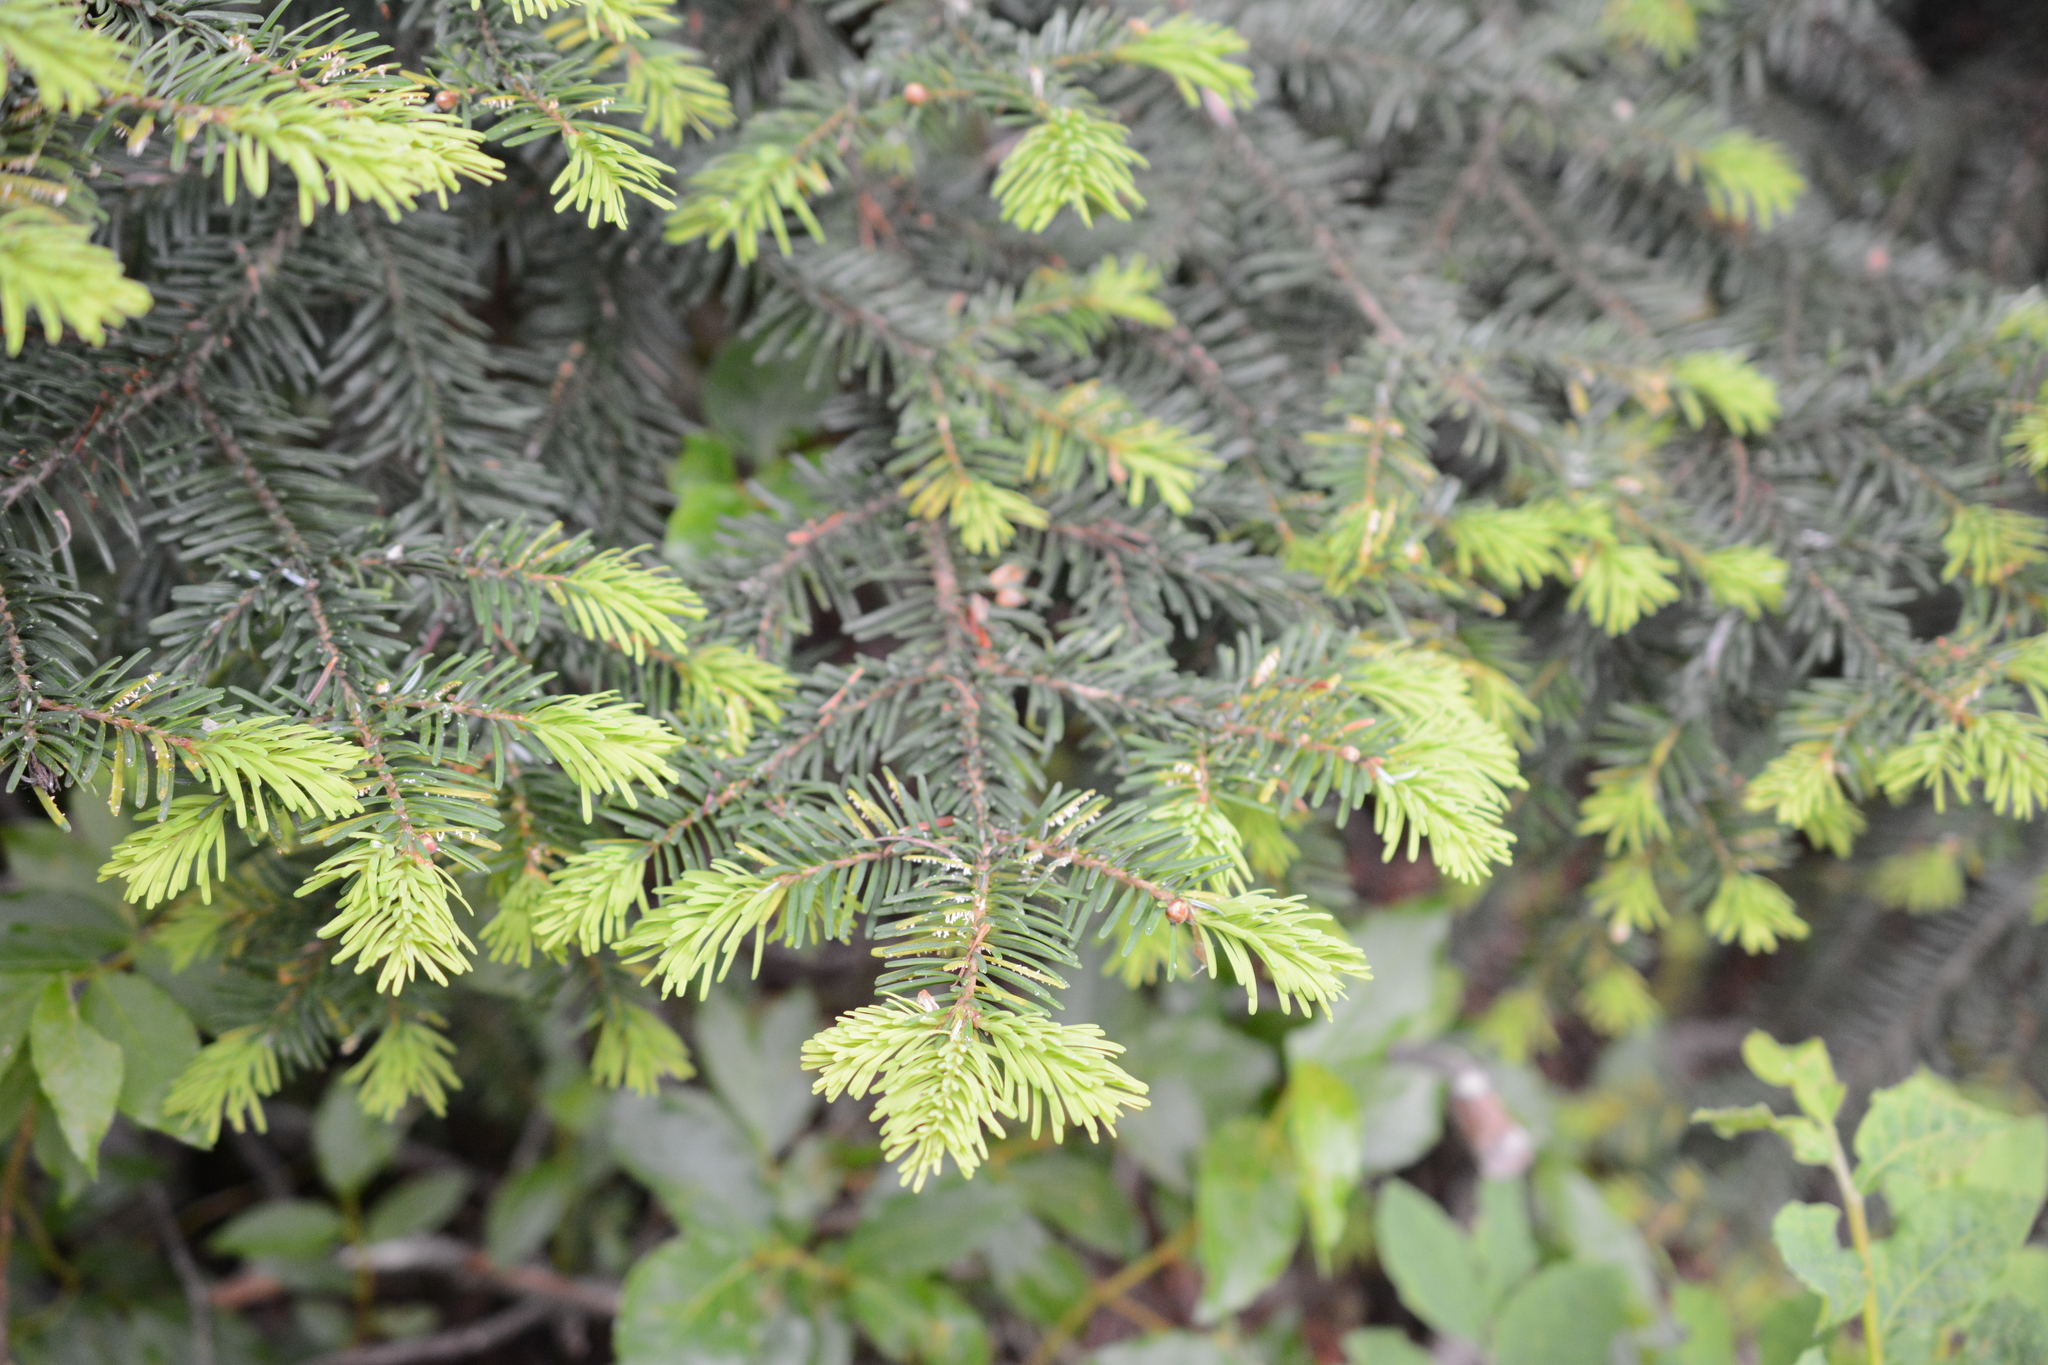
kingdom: Plantae
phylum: Tracheophyta
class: Pinopsida
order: Pinales
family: Pinaceae
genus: Abies
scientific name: Abies amabilis
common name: Pacific silver fir
